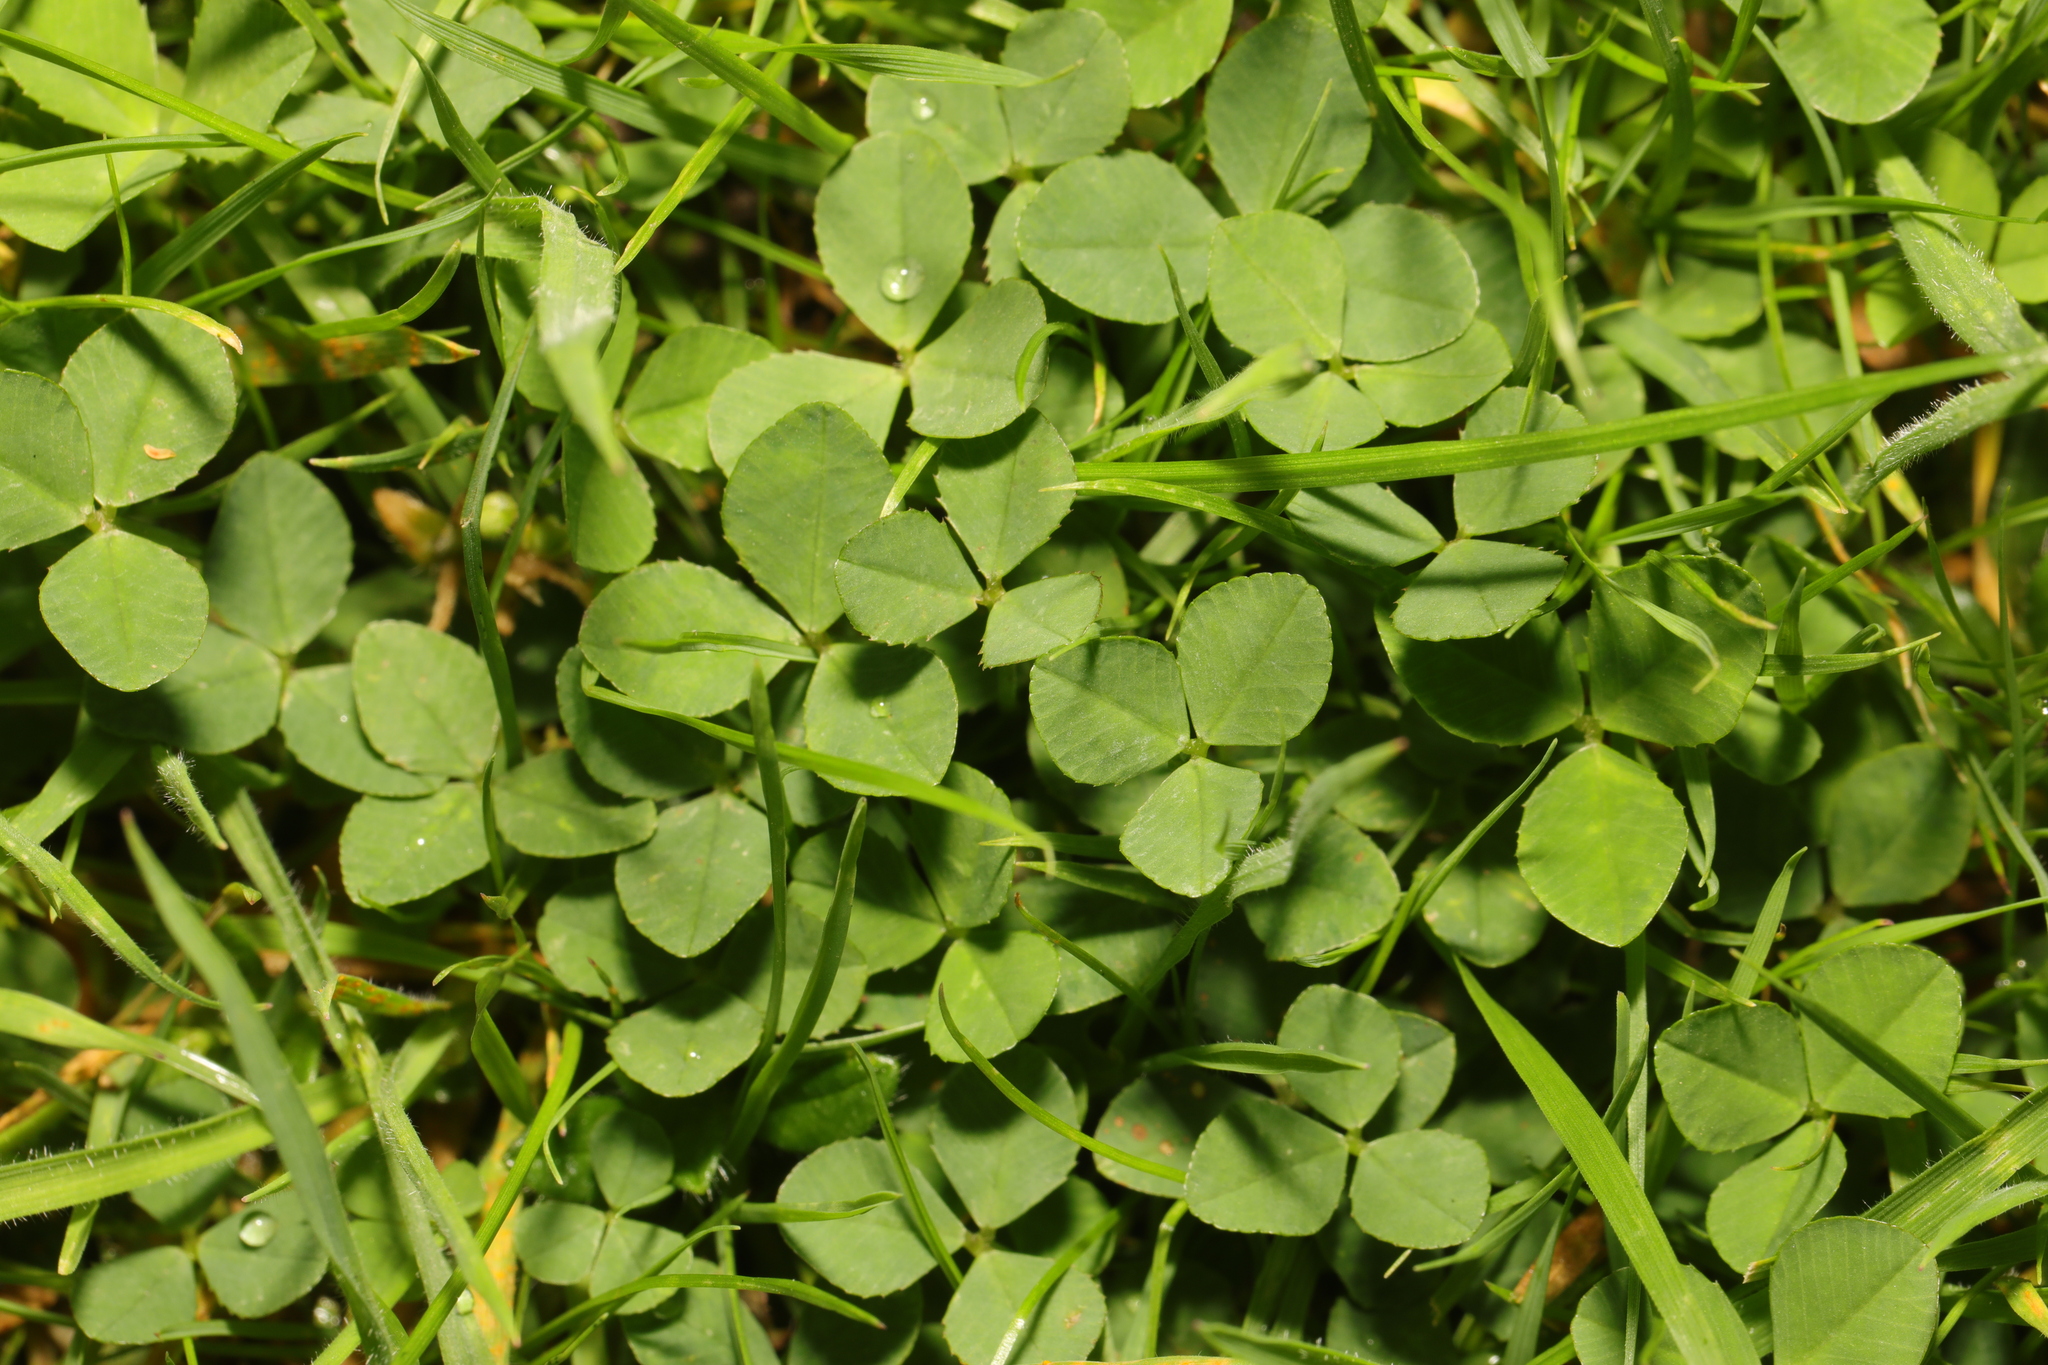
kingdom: Plantae
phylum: Tracheophyta
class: Magnoliopsida
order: Fabales
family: Fabaceae
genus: Trifolium
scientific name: Trifolium repens
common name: White clover
